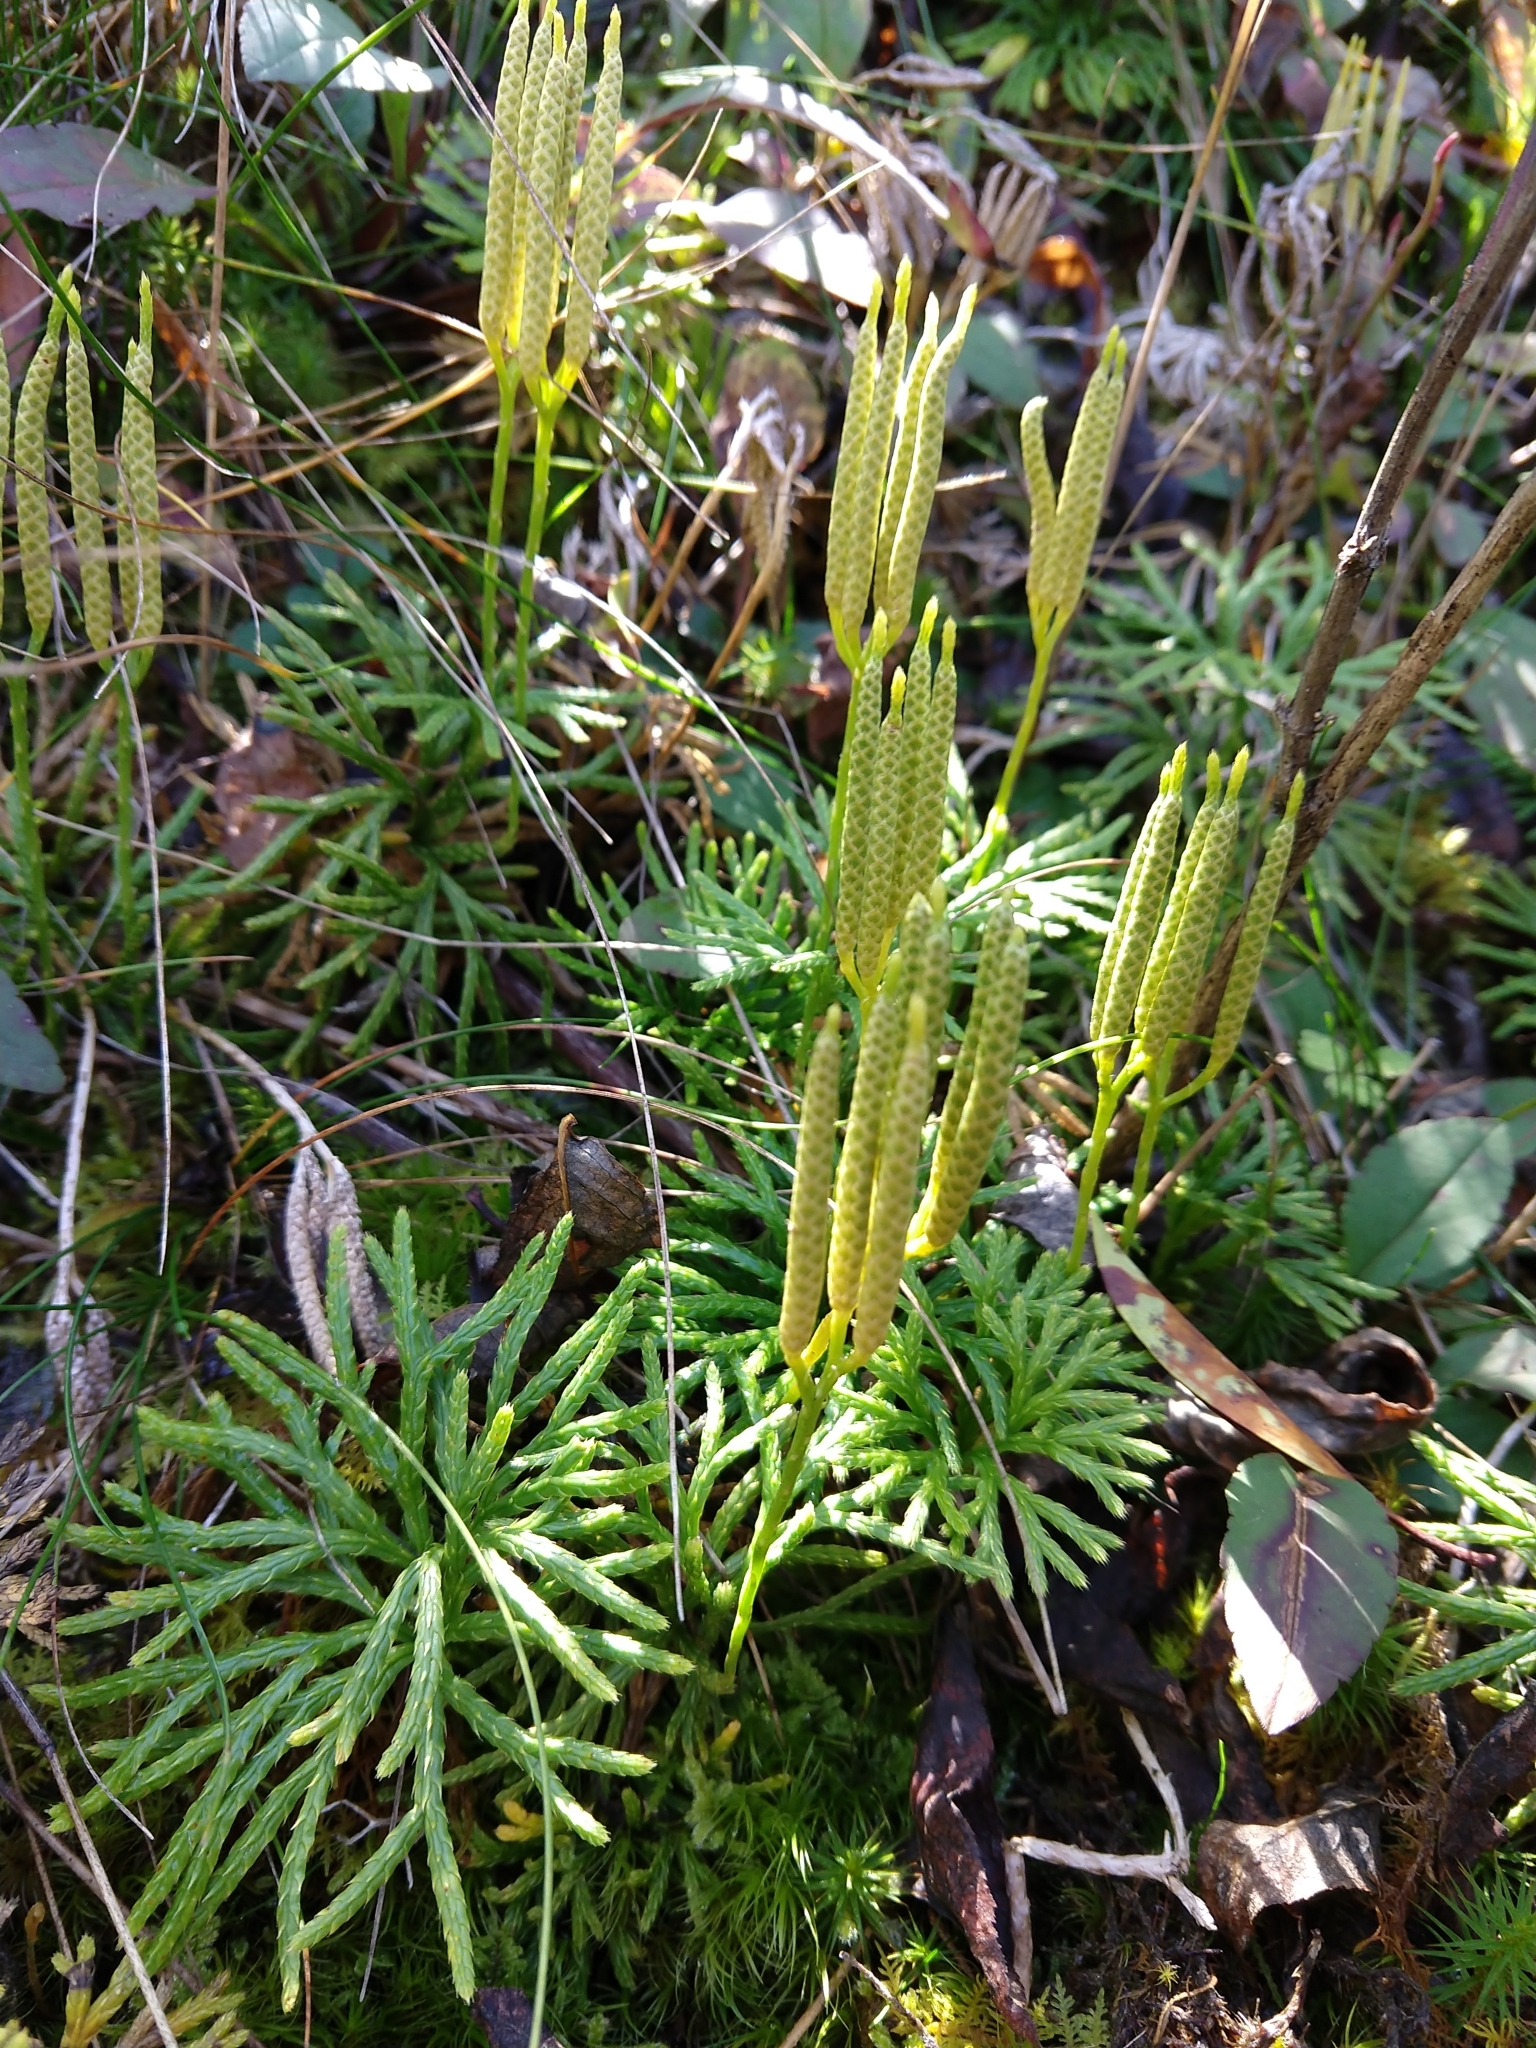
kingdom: Plantae
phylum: Tracheophyta
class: Lycopodiopsida
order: Lycopodiales
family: Lycopodiaceae
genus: Diphasiastrum
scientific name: Diphasiastrum digitatum
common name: Southern running-pine
